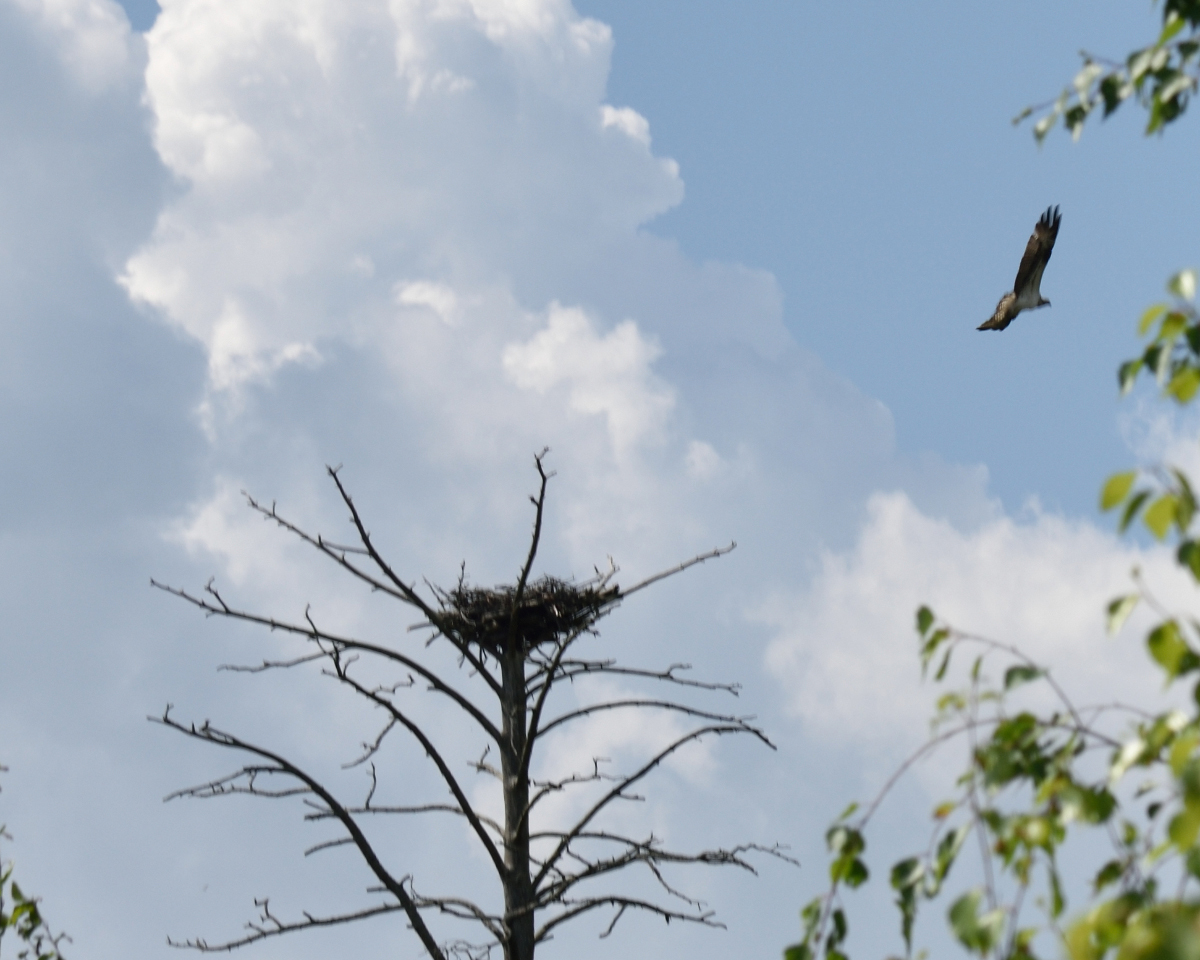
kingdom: Animalia
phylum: Chordata
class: Aves
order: Accipitriformes
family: Pandionidae
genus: Pandion
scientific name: Pandion haliaetus
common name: Osprey
